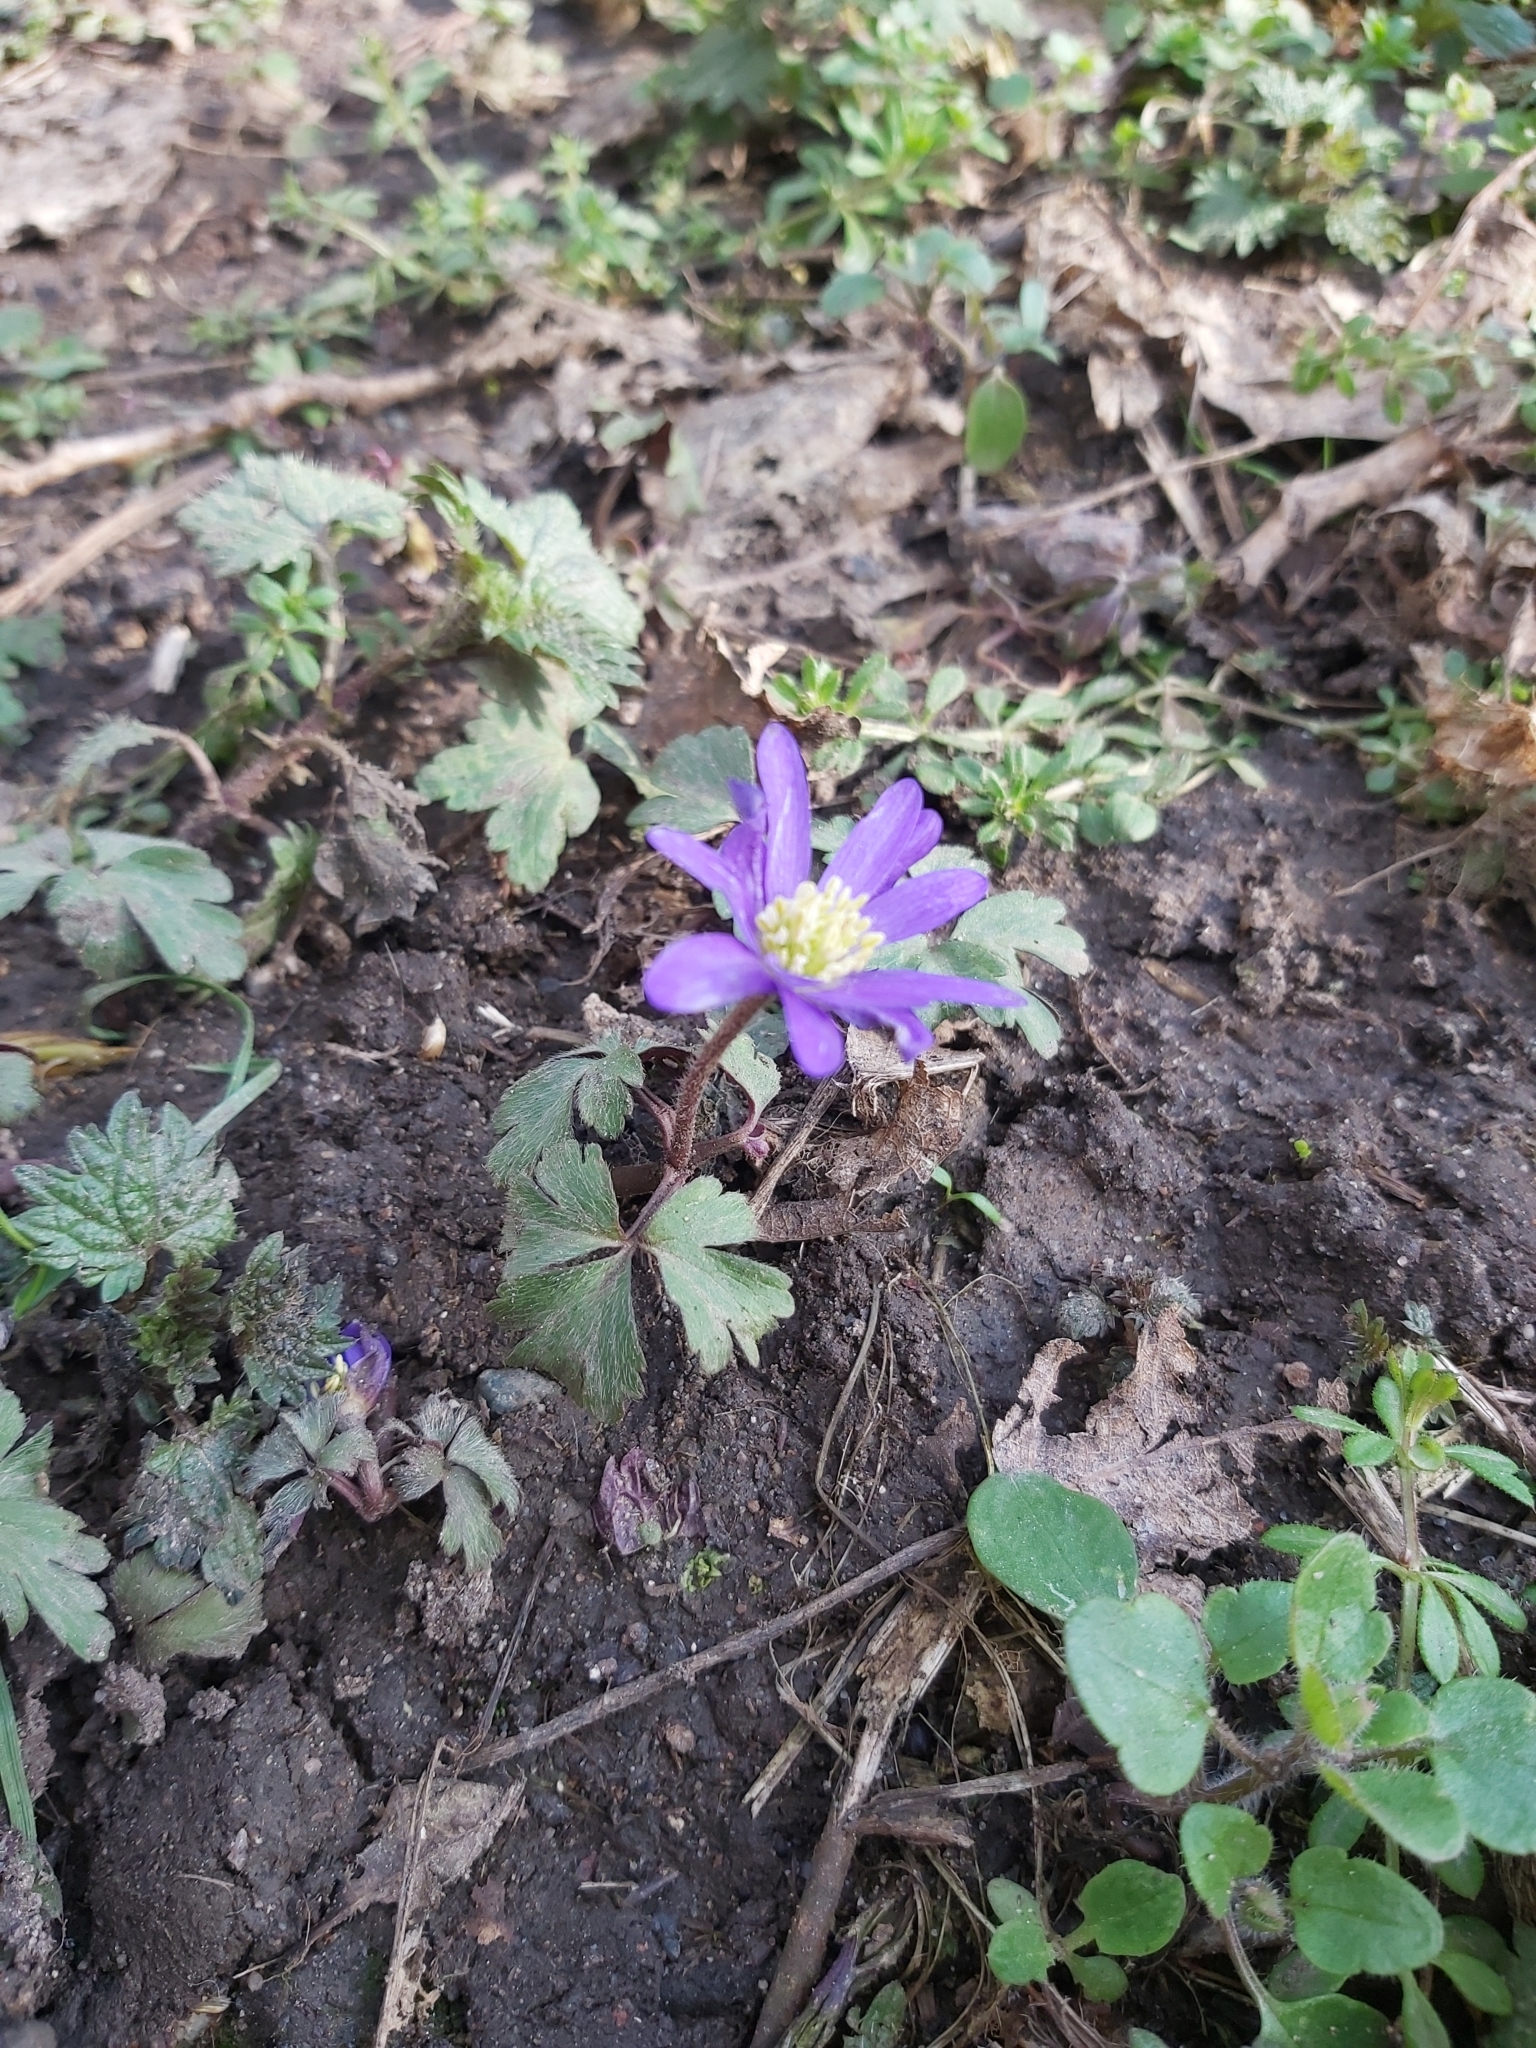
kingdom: Plantae
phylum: Tracheophyta
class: Magnoliopsida
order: Ranunculales
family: Ranunculaceae
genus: Anemone
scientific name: Anemone blanda
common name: Balkan anemone
